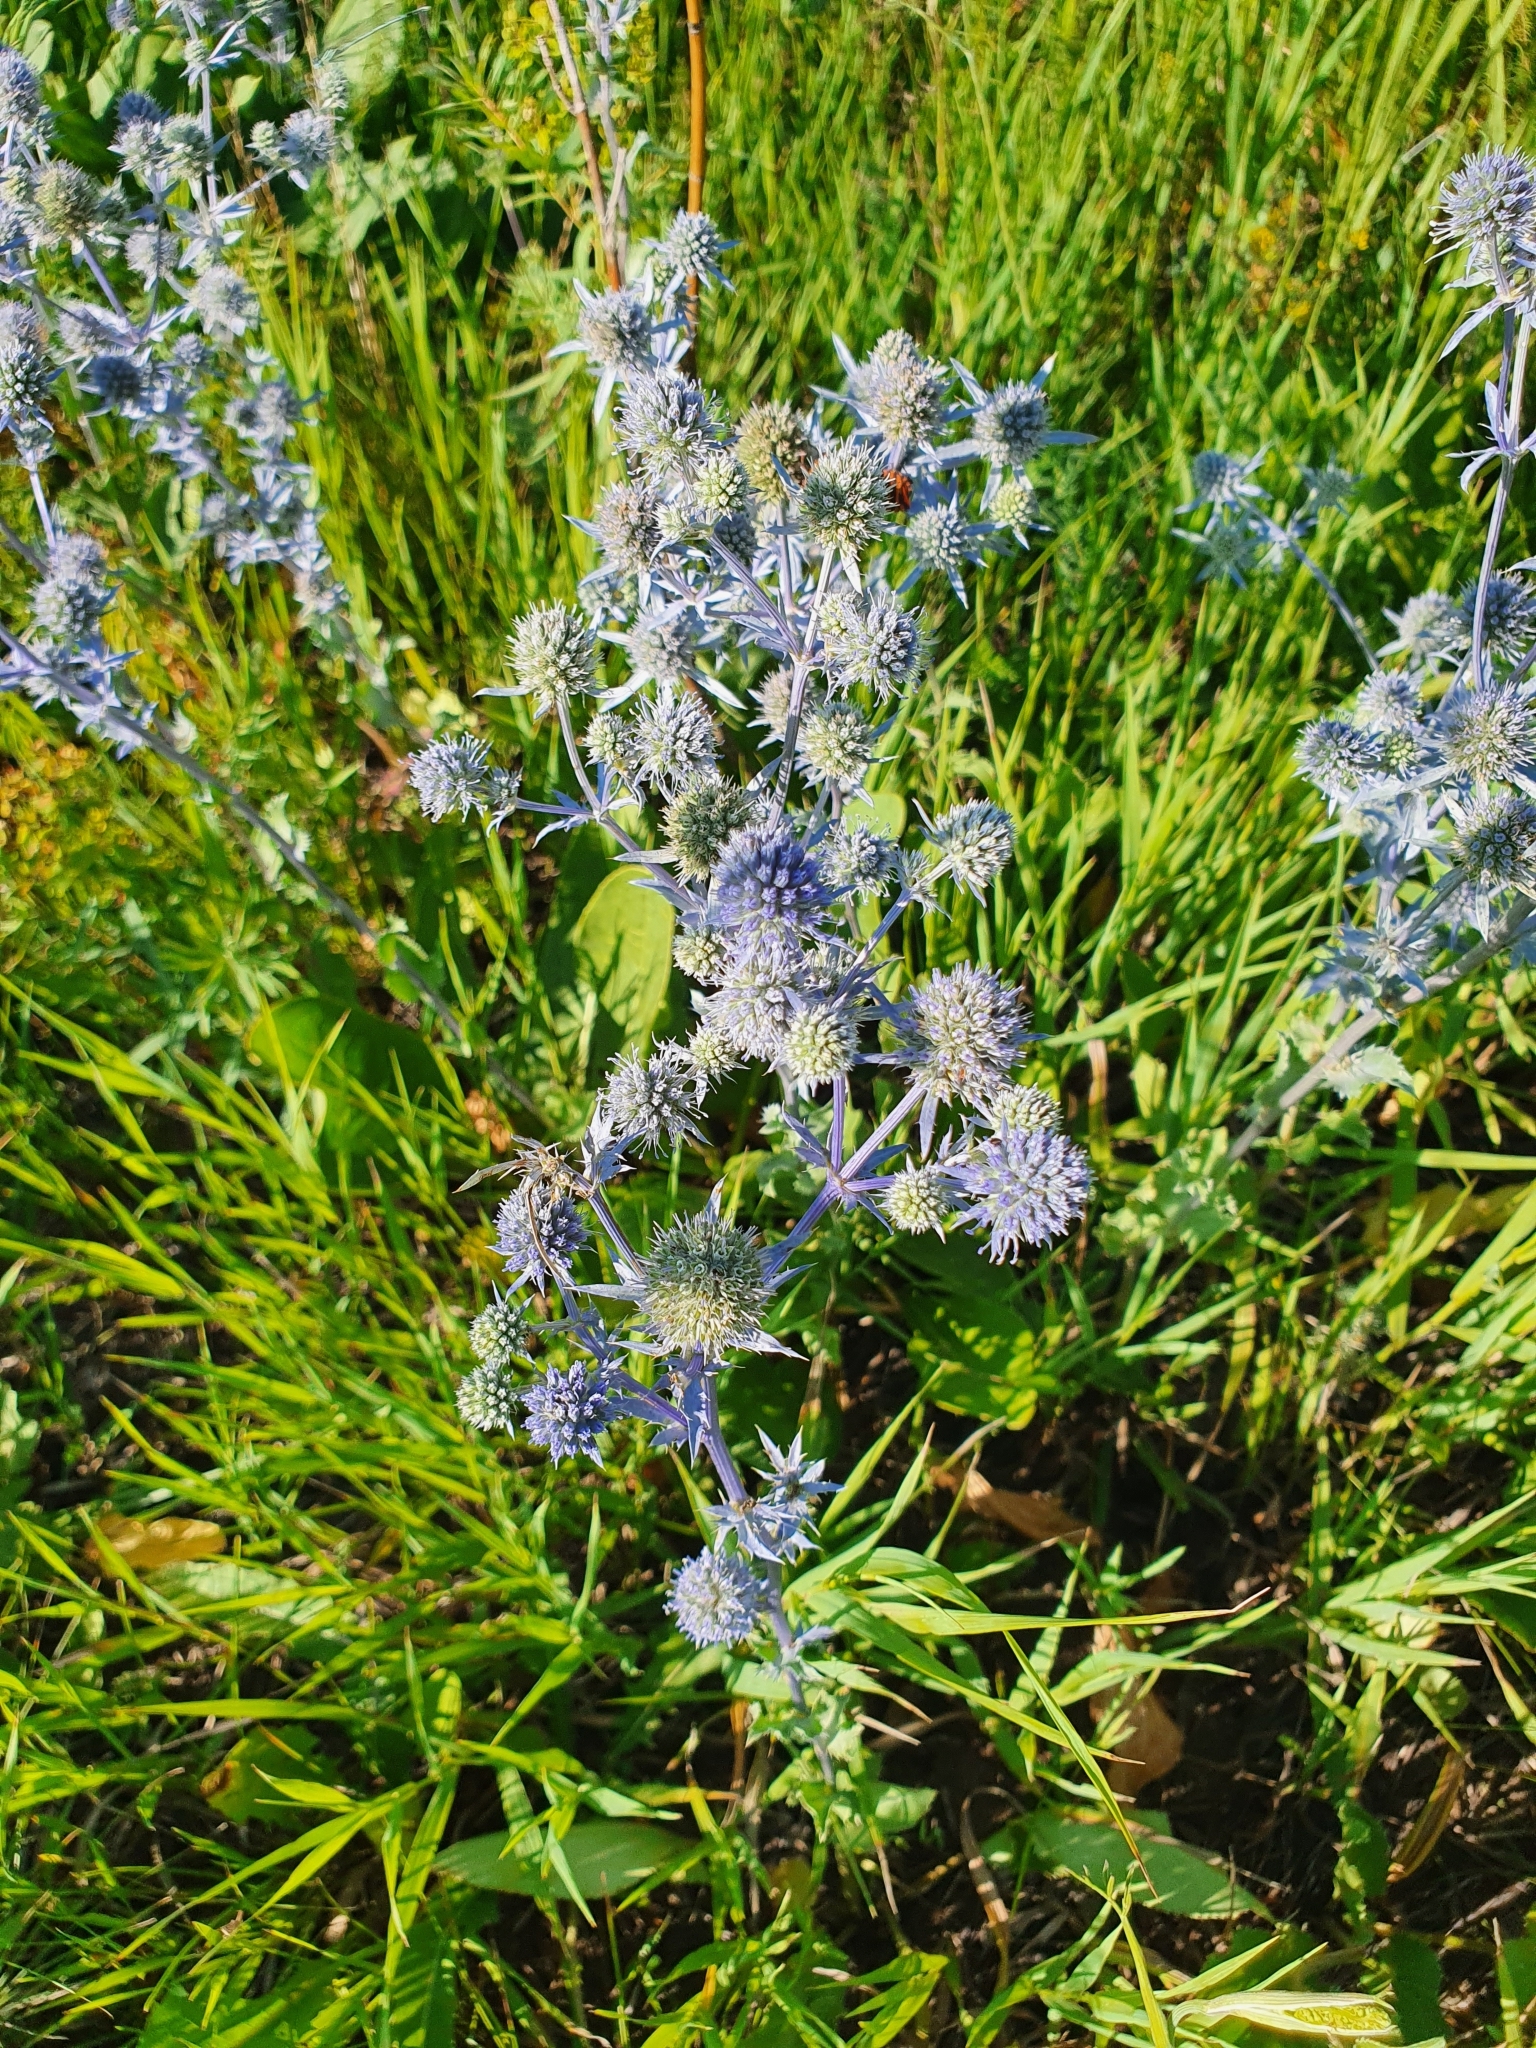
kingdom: Plantae
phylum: Tracheophyta
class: Magnoliopsida
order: Apiales
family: Apiaceae
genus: Eryngium
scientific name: Eryngium planum
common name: Blue eryngo
